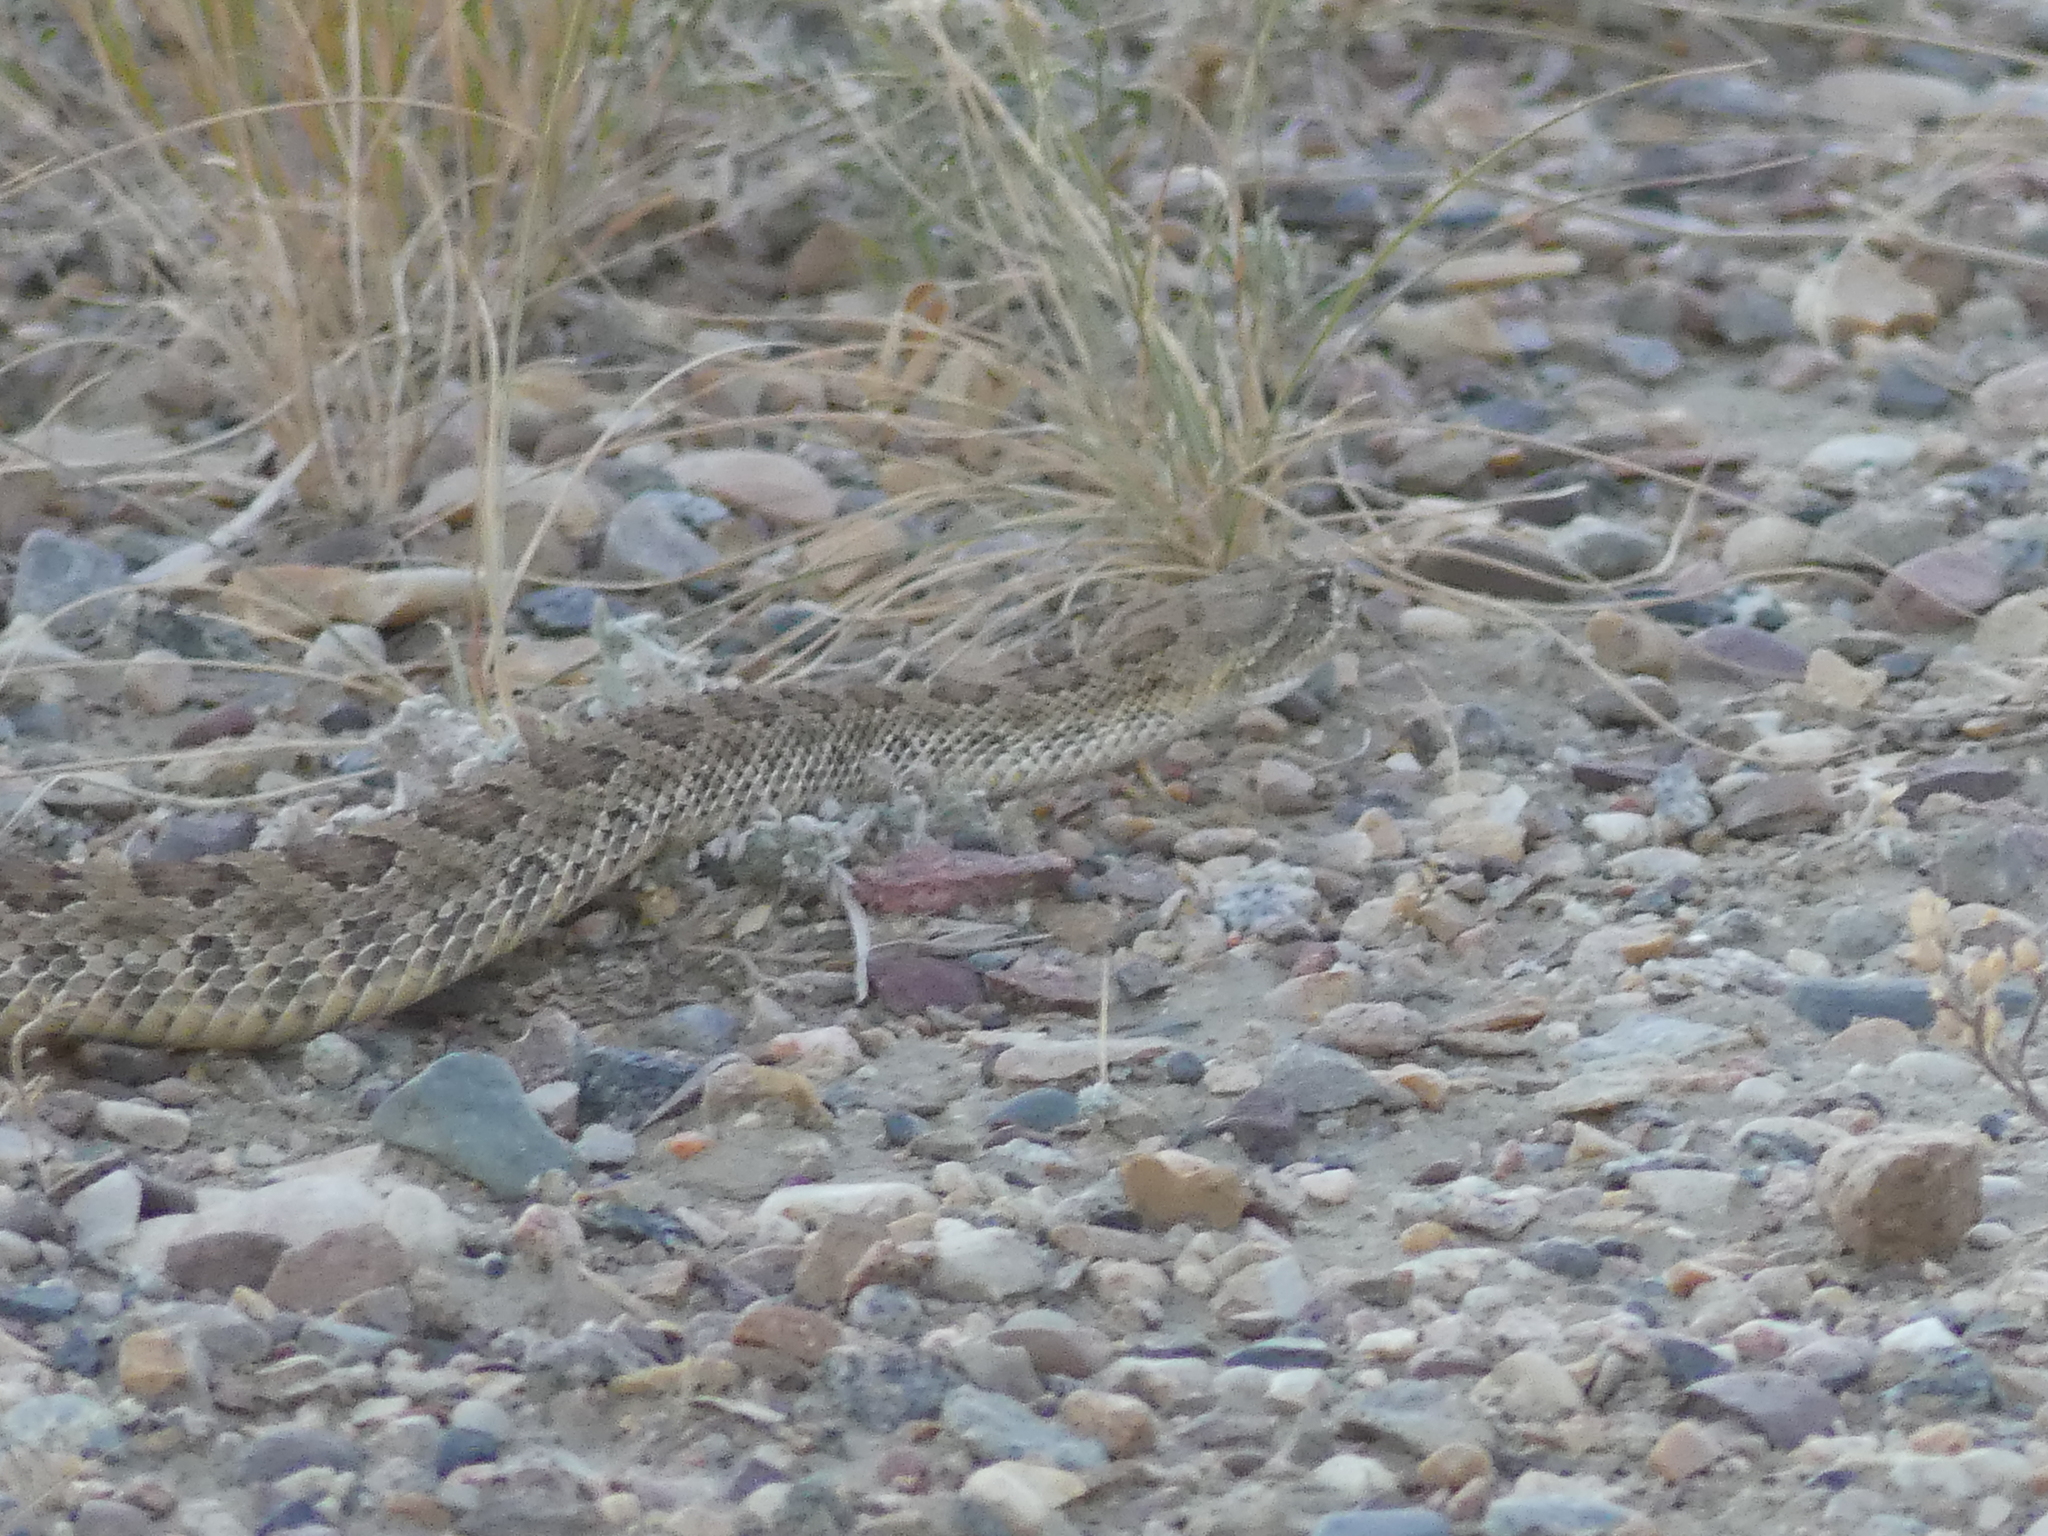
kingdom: Animalia
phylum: Chordata
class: Squamata
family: Viperidae
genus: Crotalus
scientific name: Crotalus viridis
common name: Prairie rattlesnake
